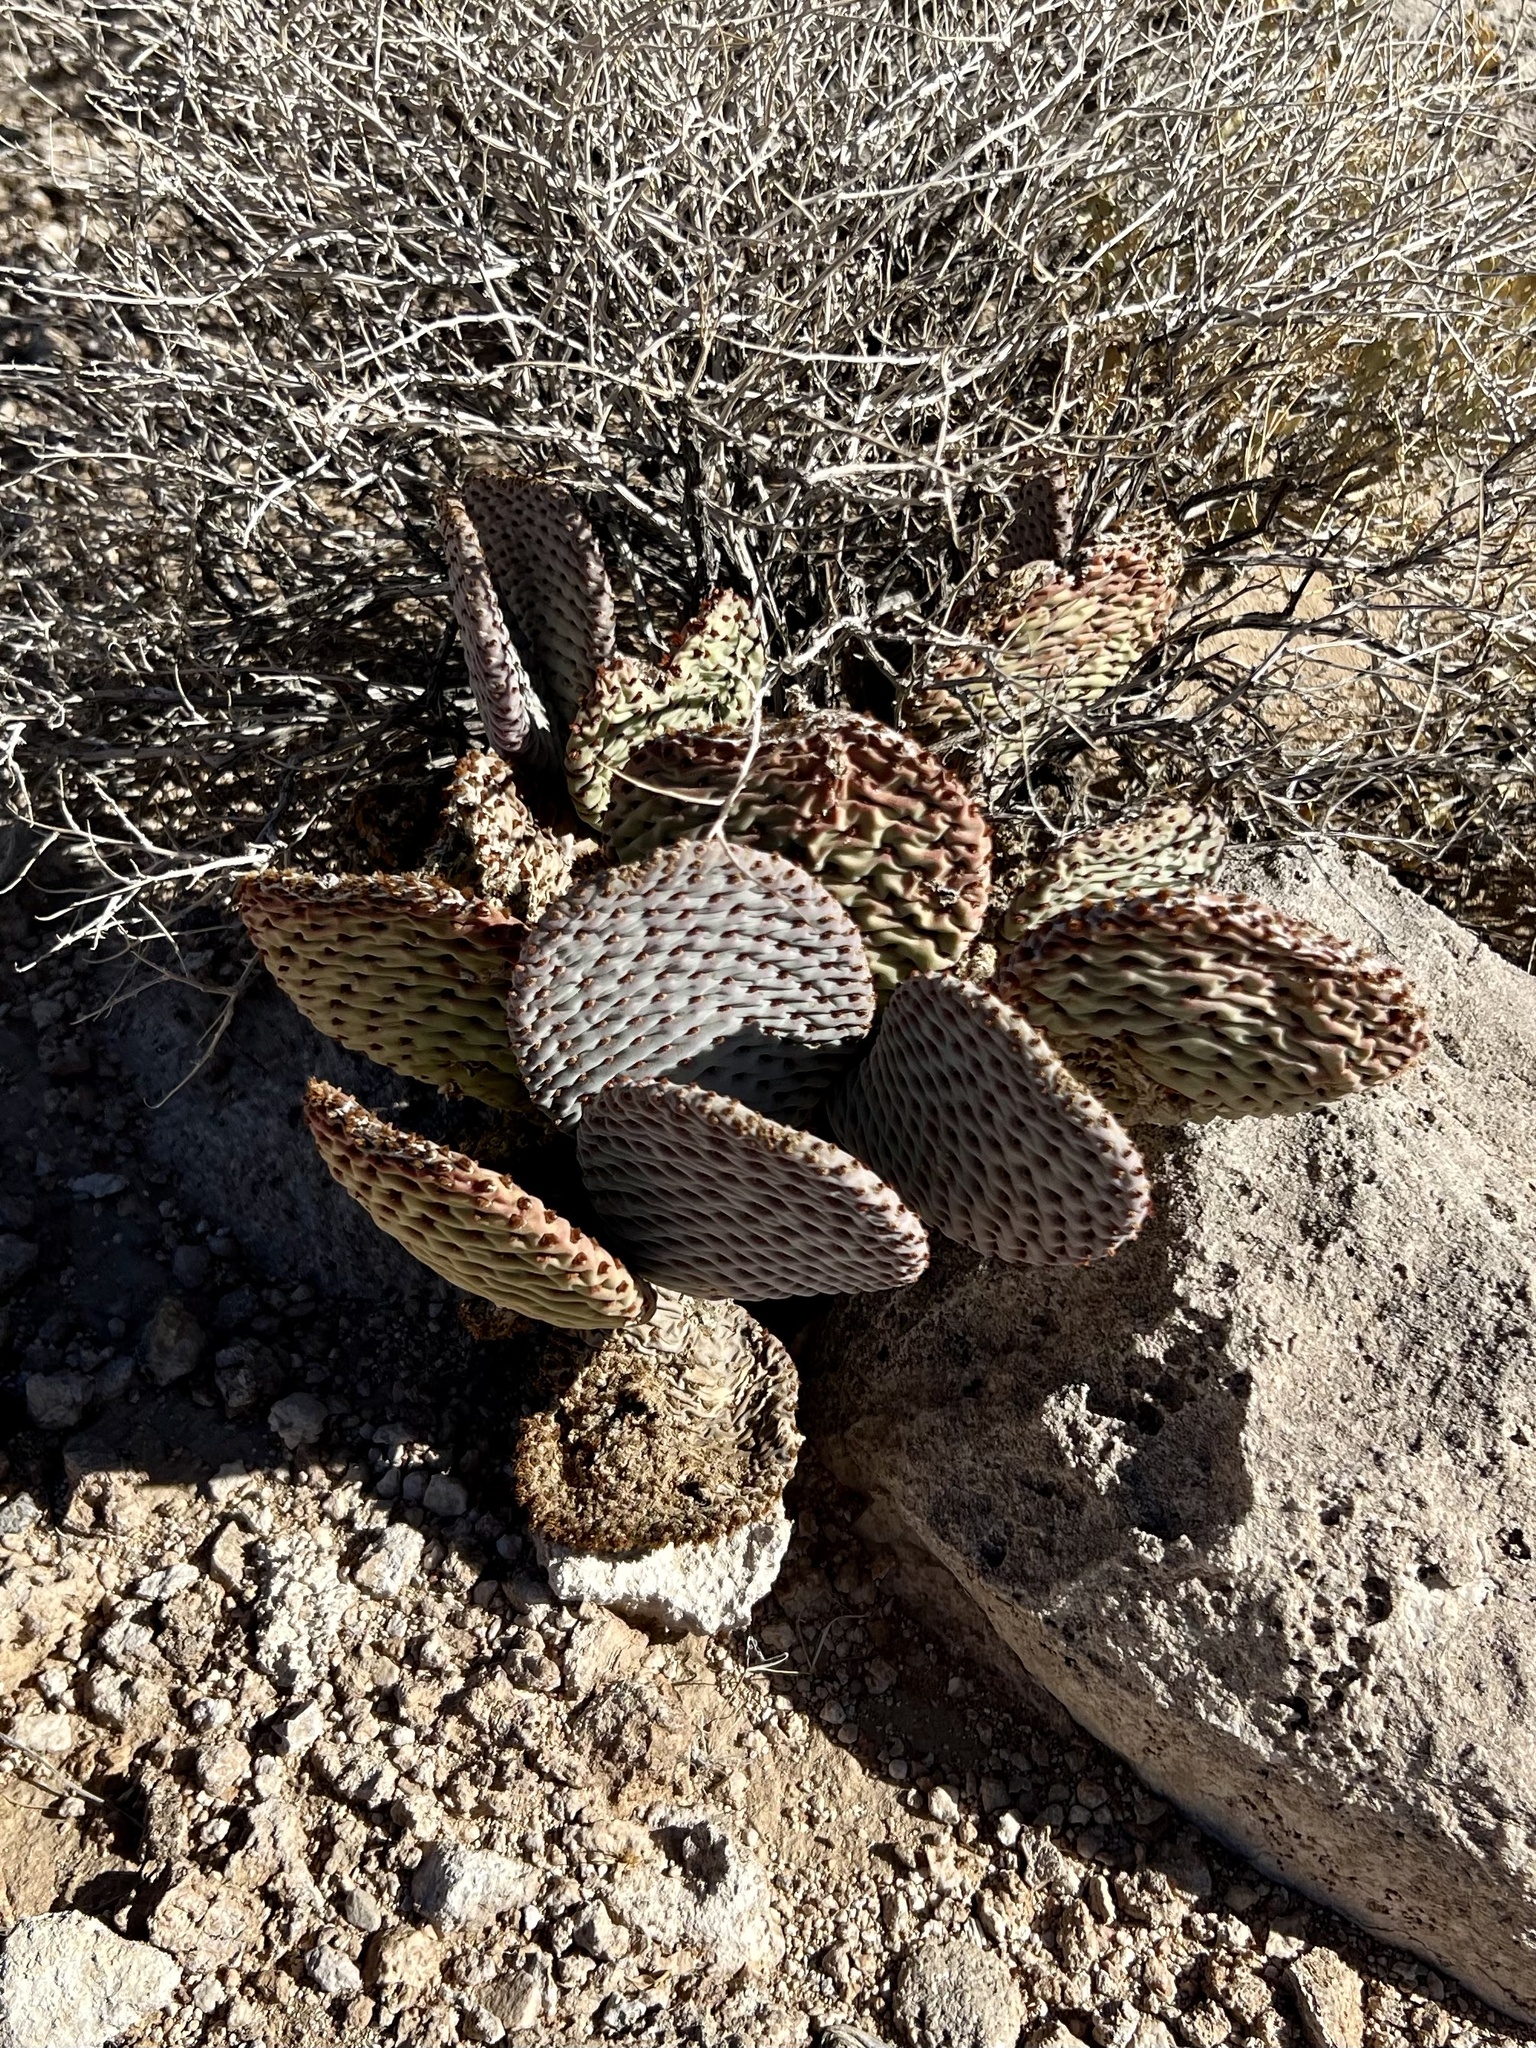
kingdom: Plantae
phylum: Tracheophyta
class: Magnoliopsida
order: Caryophyllales
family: Cactaceae
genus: Opuntia
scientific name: Opuntia basilaris
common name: Beavertail prickly-pear
